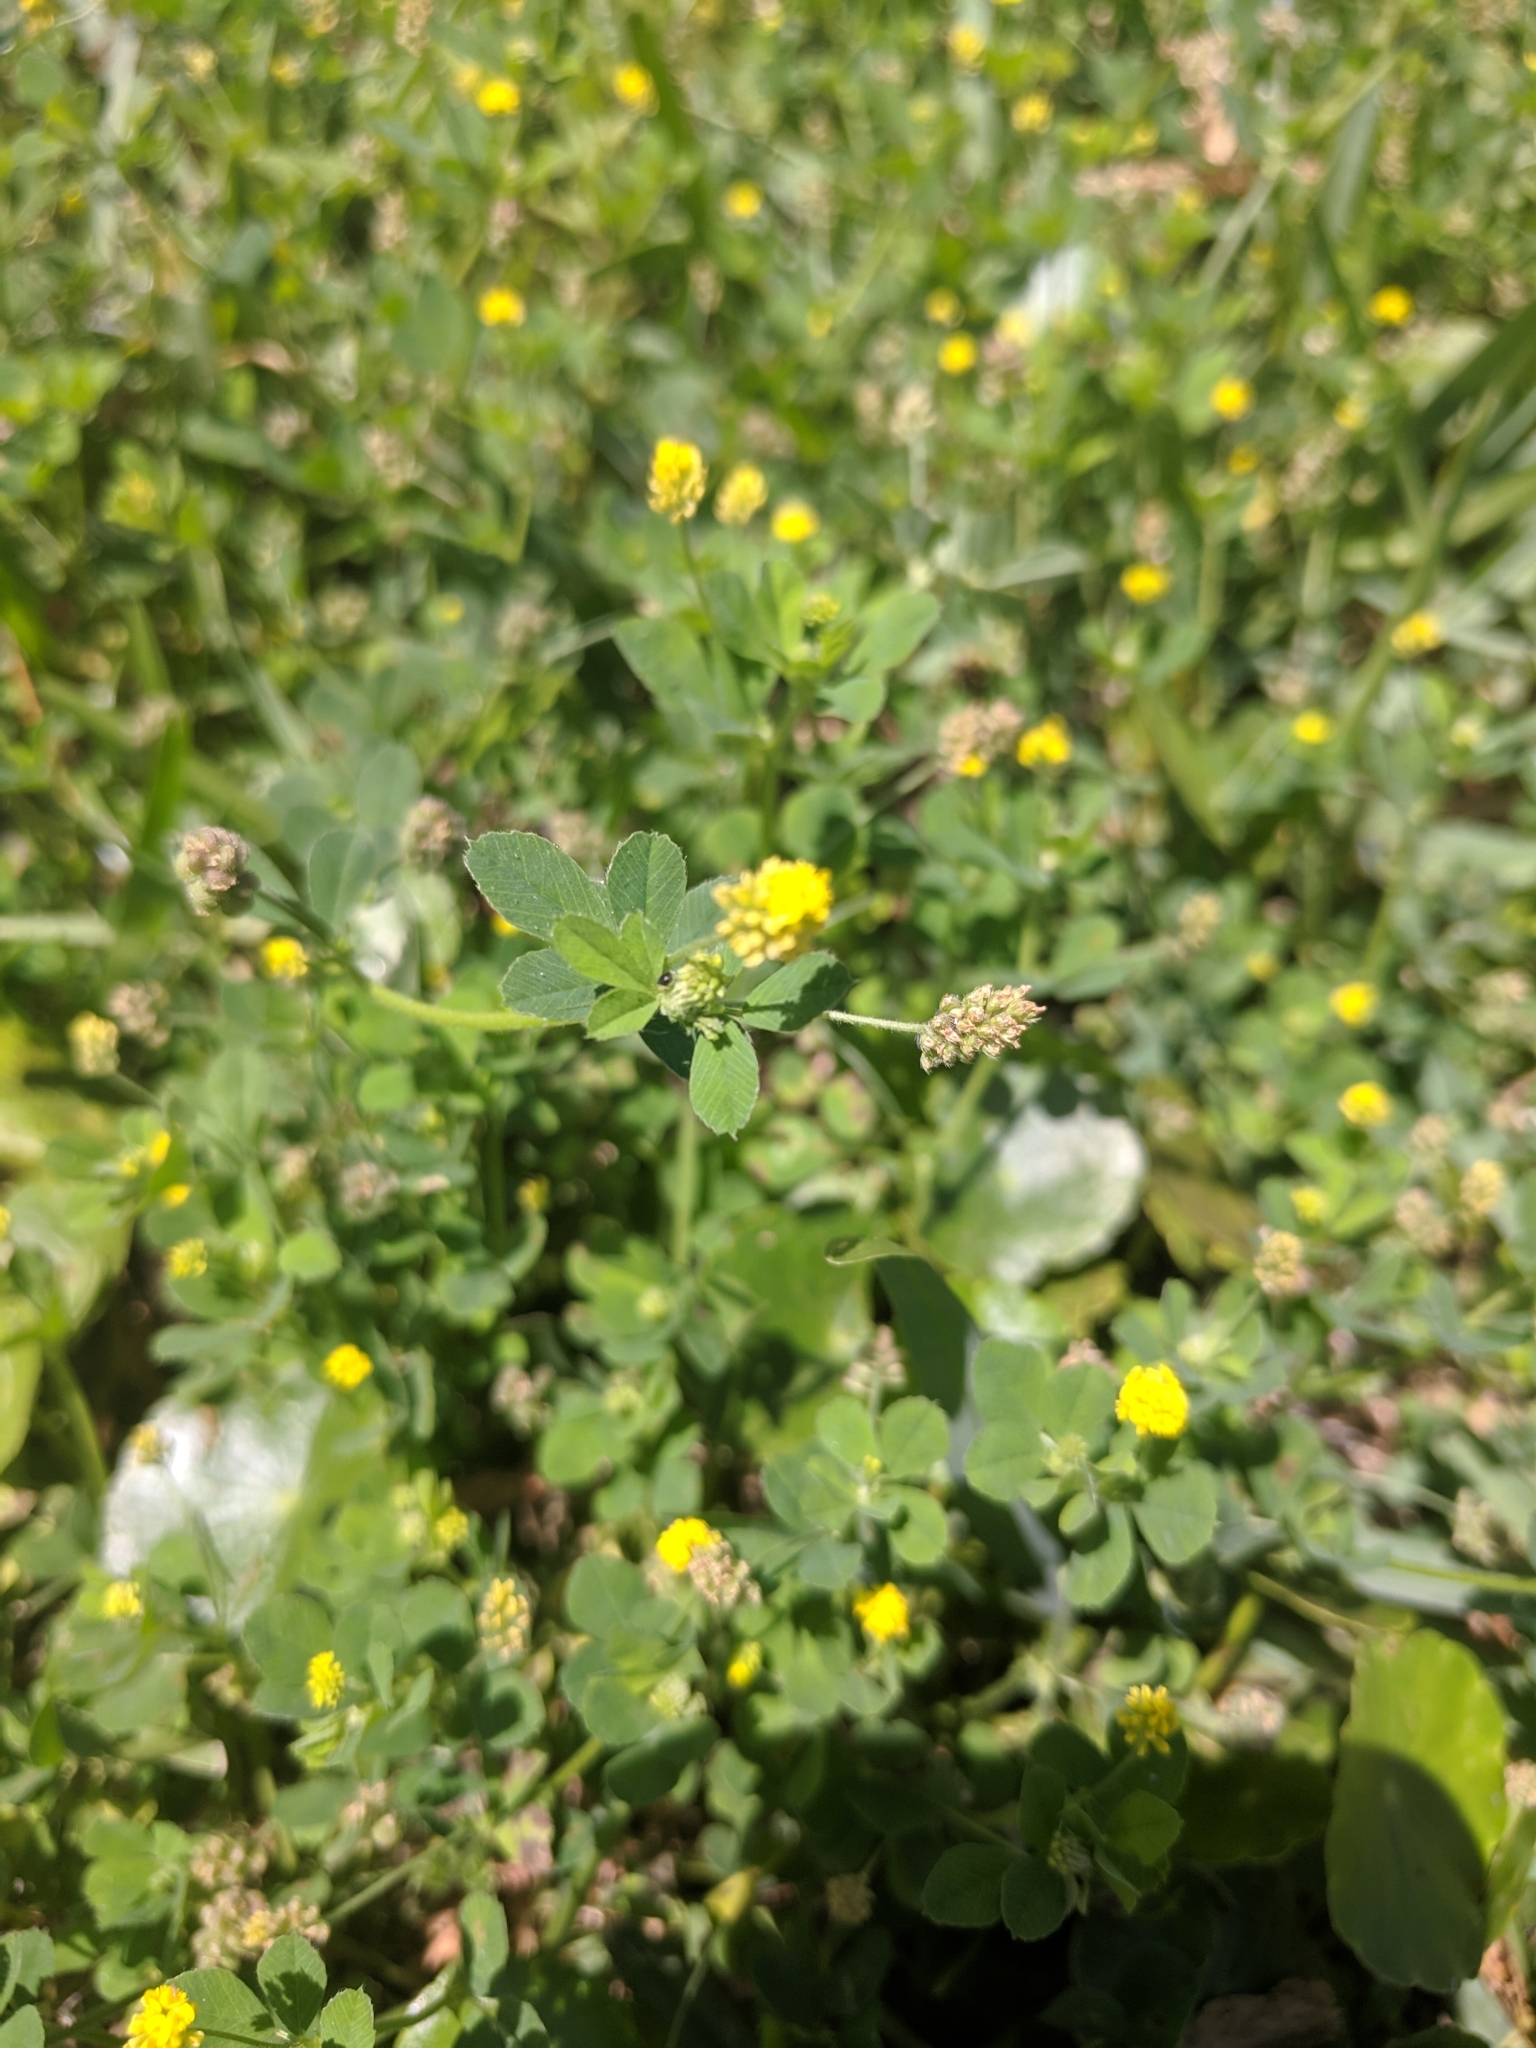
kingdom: Plantae
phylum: Tracheophyta
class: Magnoliopsida
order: Fabales
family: Fabaceae
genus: Medicago
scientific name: Medicago lupulina
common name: Black medick
